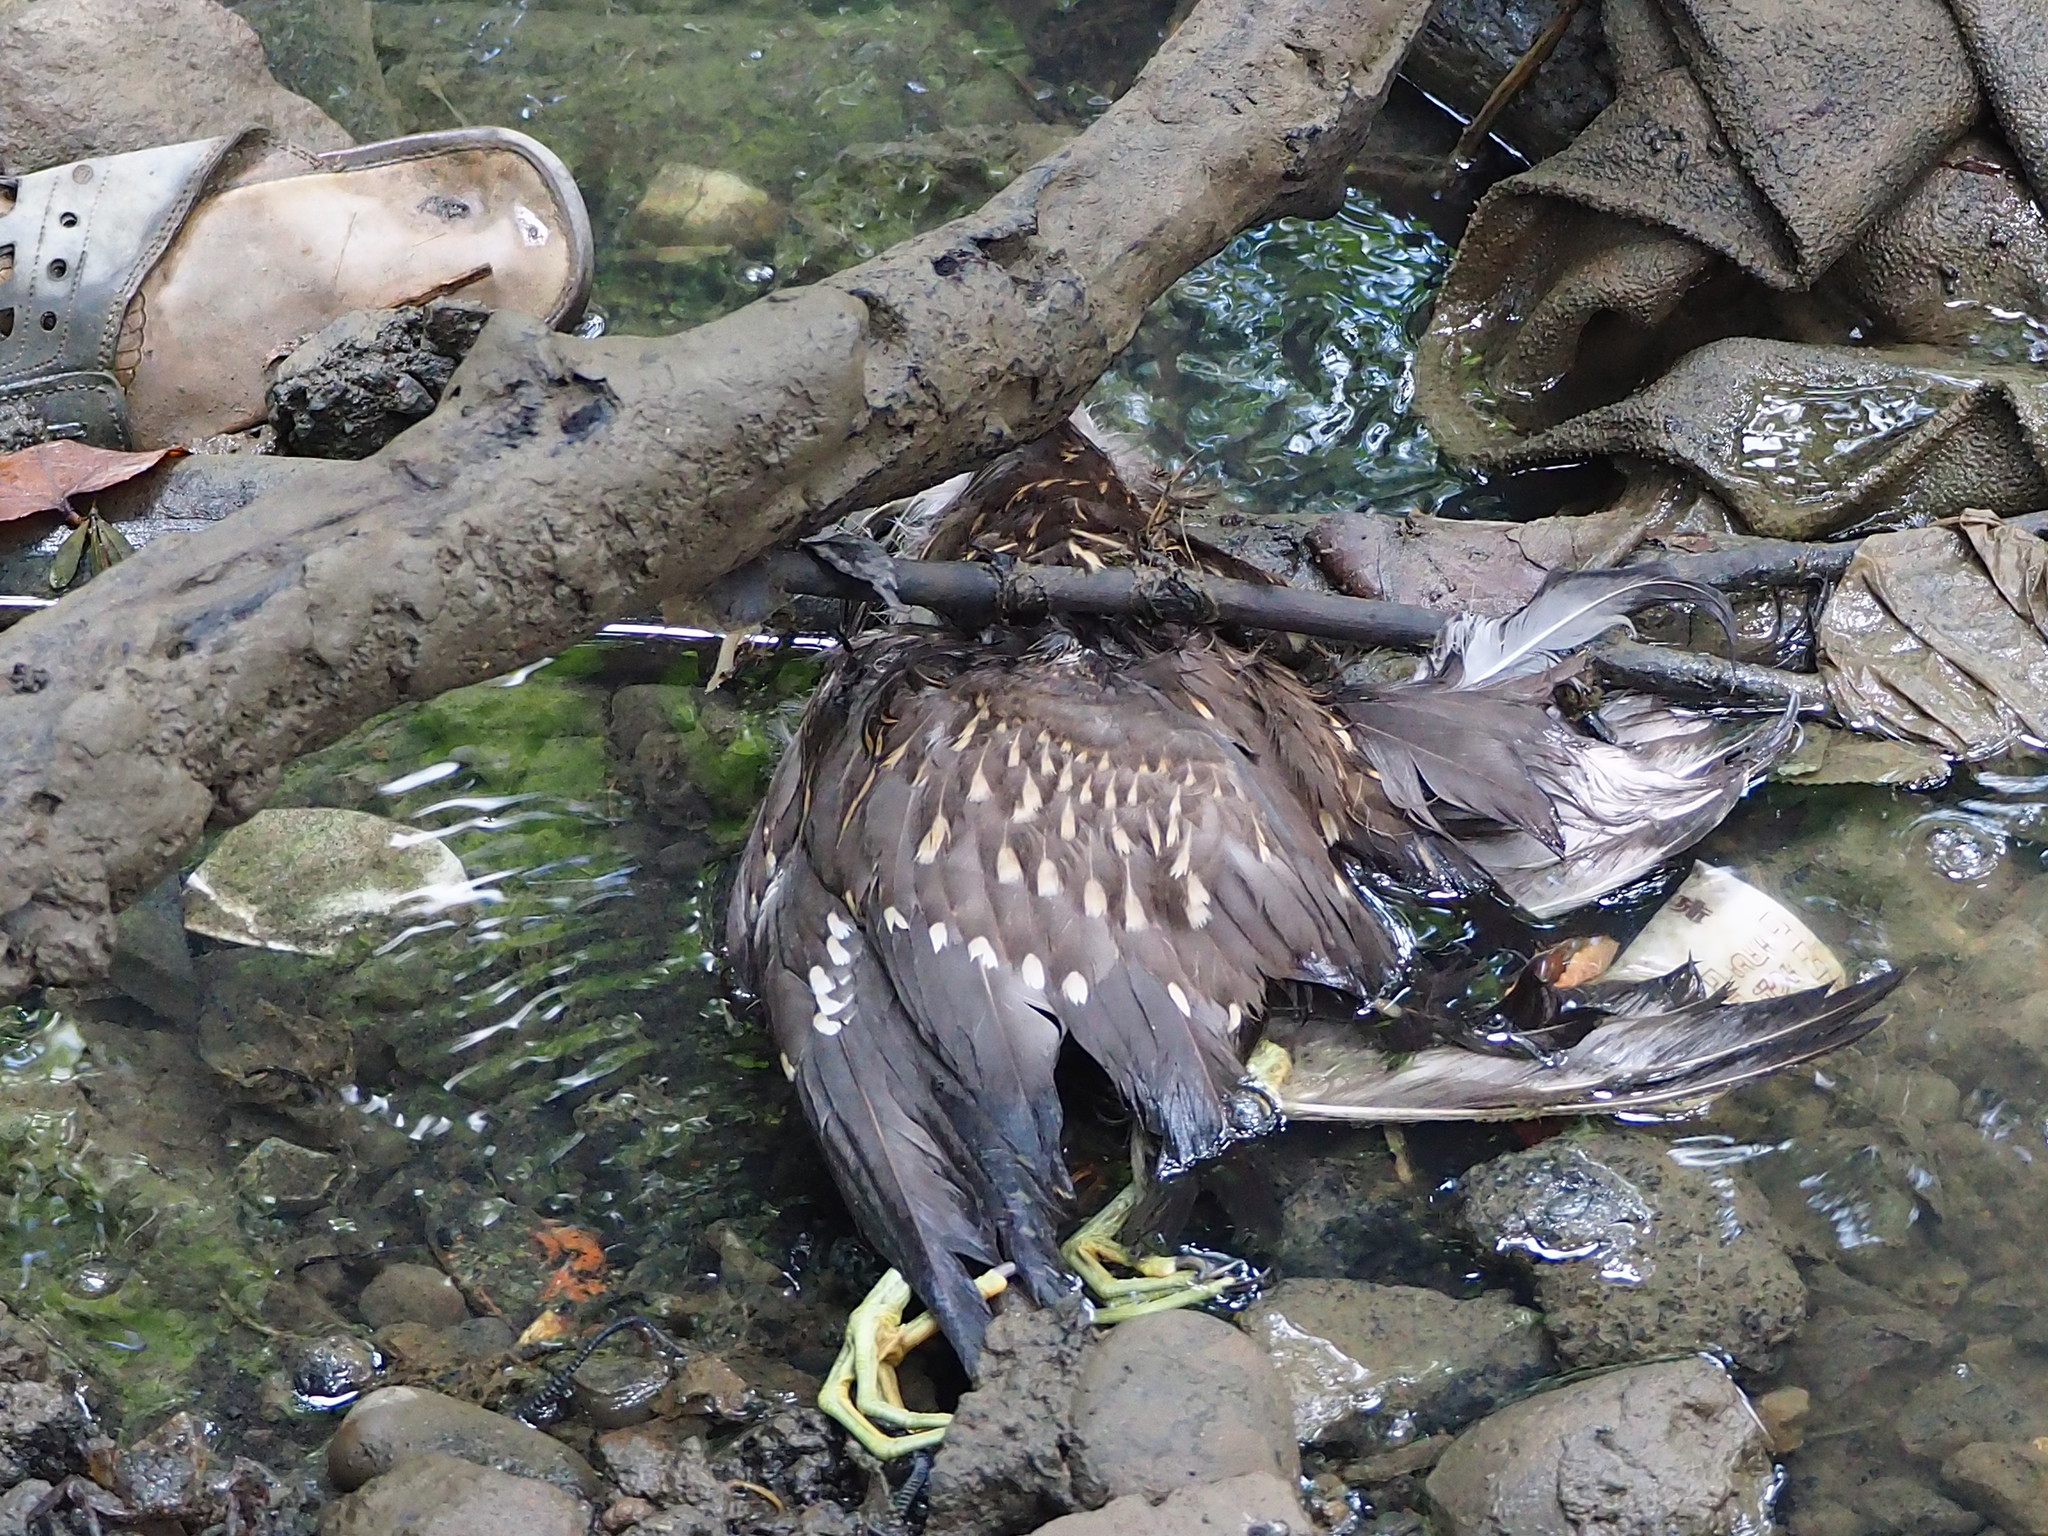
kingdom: Animalia
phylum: Chordata
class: Aves
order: Pelecaniformes
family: Ardeidae
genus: Nycticorax
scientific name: Nycticorax nycticorax
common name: Black-crowned night heron
